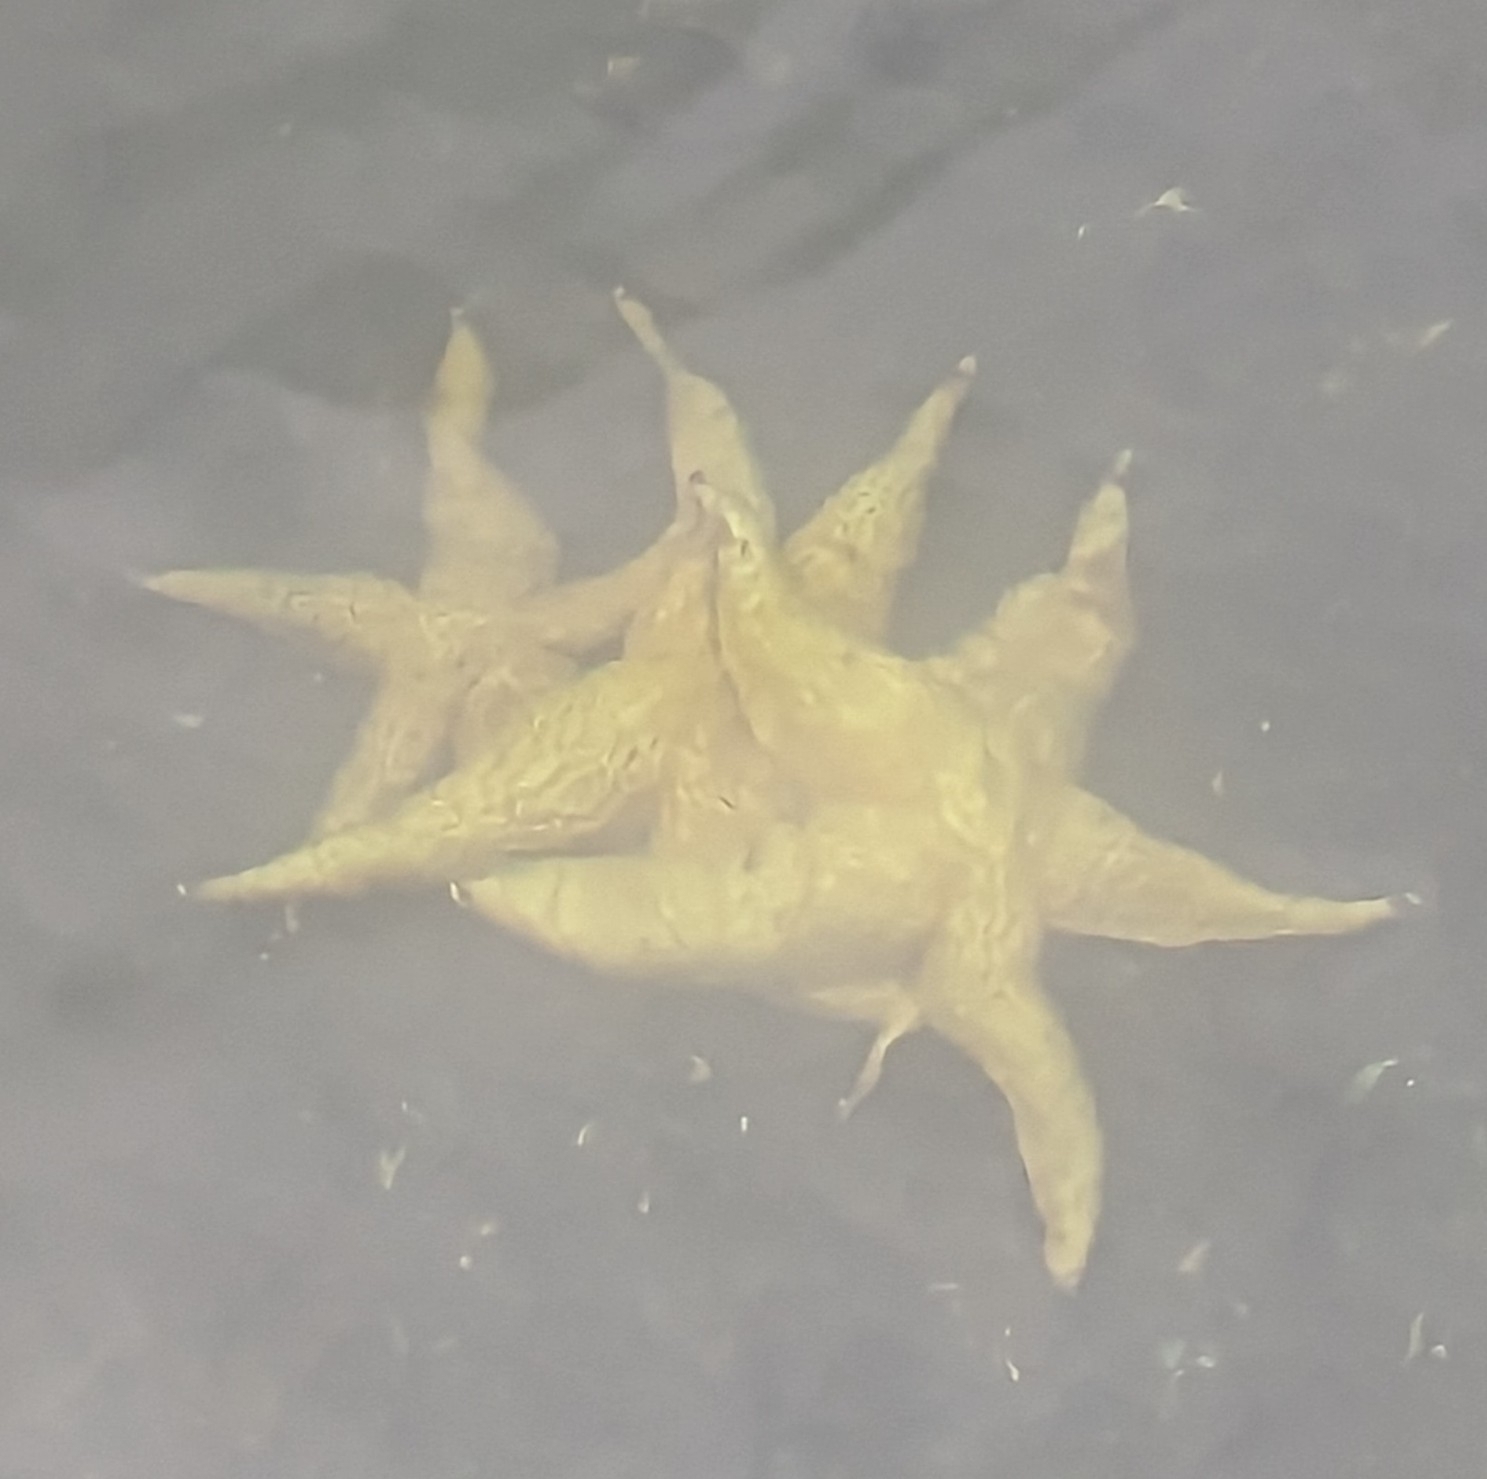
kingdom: Animalia
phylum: Echinodermata
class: Asteroidea
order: Forcipulatida
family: Asteriidae
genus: Asterias
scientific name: Asterias amurensis
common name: Flat-bottomed star
